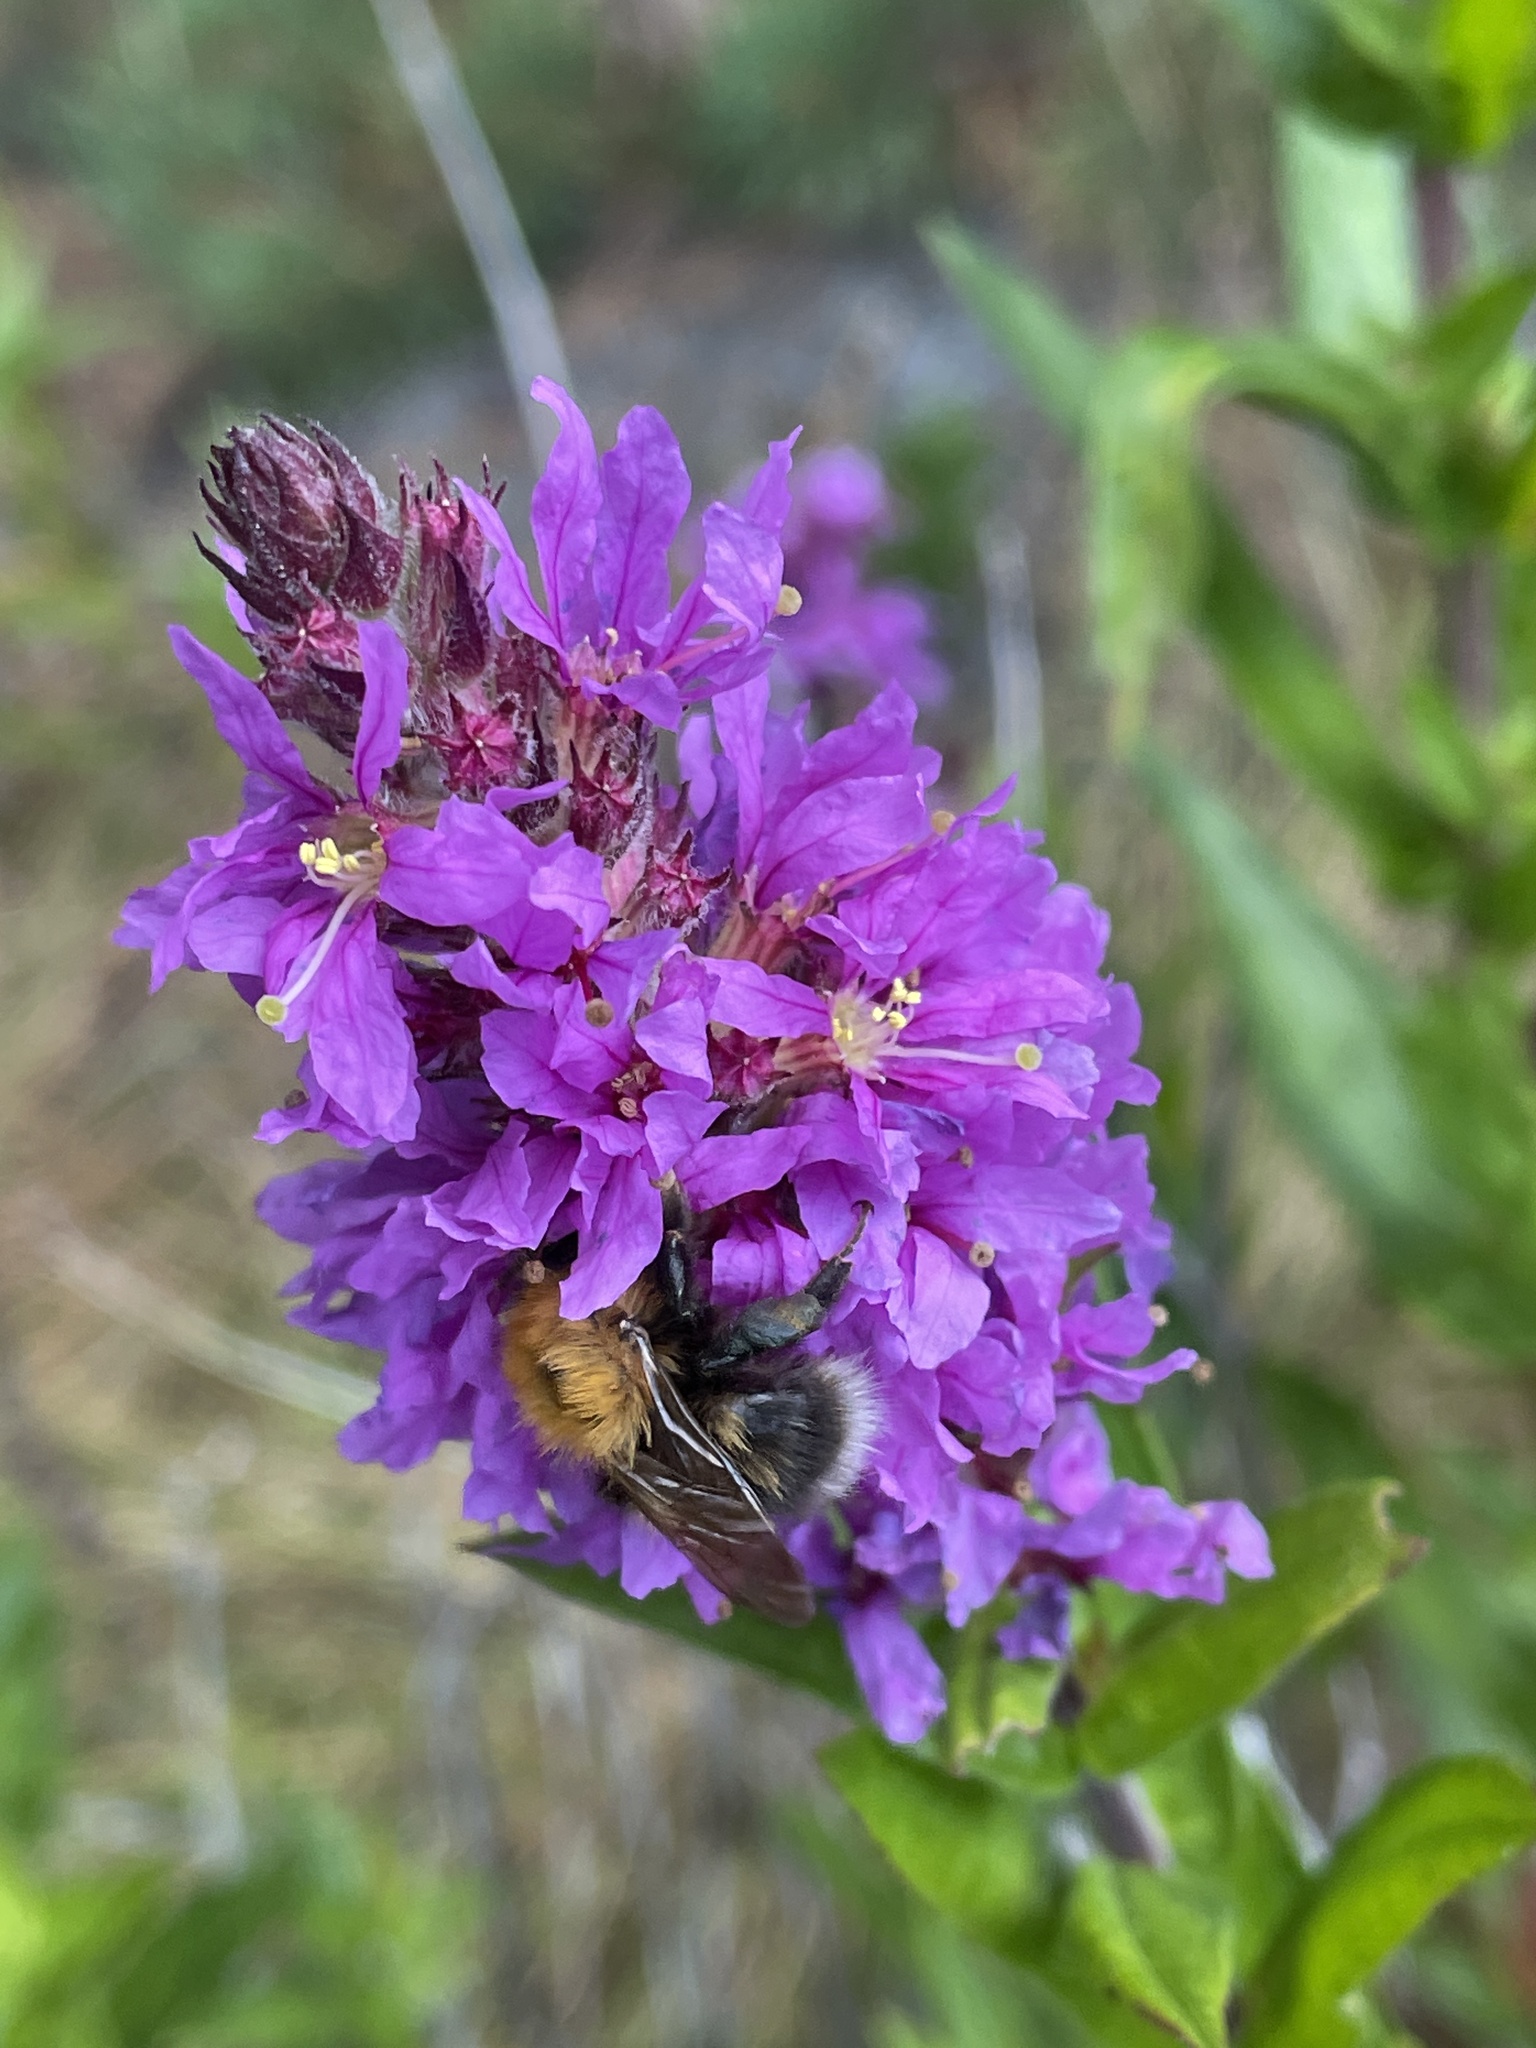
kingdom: Animalia
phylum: Arthropoda
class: Insecta
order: Hymenoptera
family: Apidae
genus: Bombus
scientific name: Bombus hypnorum
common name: New garden bumblebee
